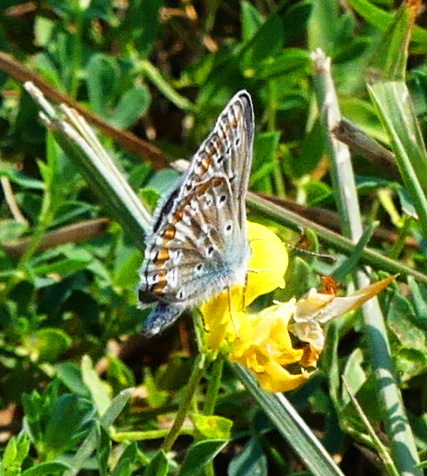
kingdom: Animalia
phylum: Arthropoda
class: Insecta
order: Lepidoptera
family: Lycaenidae
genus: Polyommatus
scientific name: Polyommatus icarus
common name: Common blue
